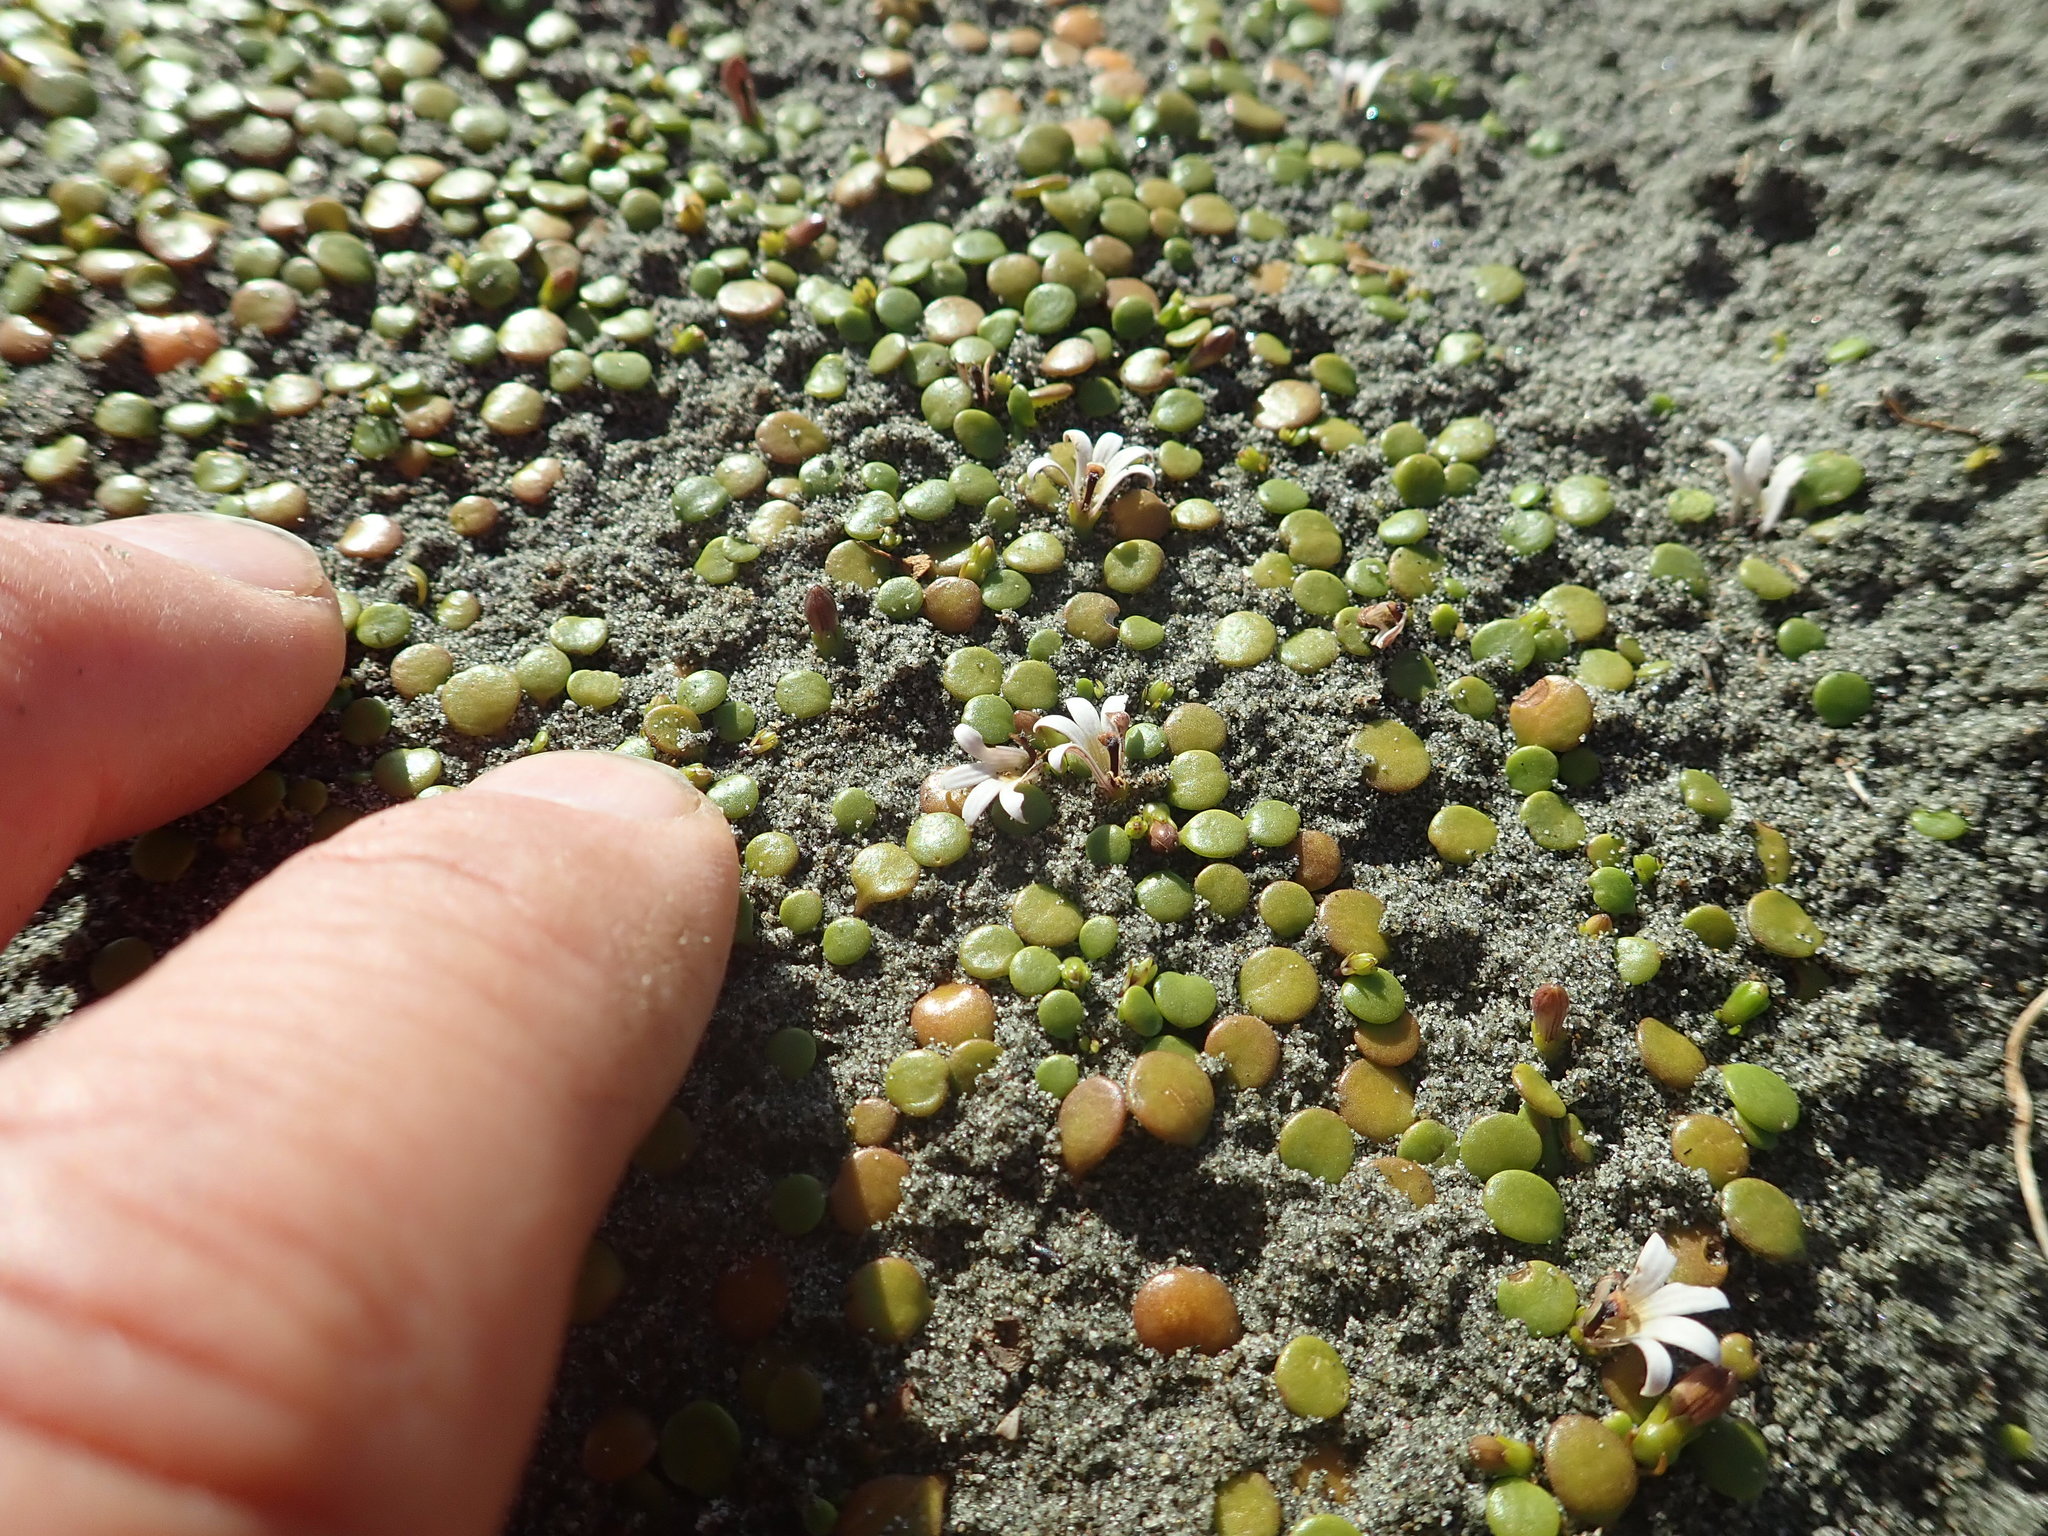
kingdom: Plantae
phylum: Tracheophyta
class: Magnoliopsida
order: Asterales
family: Goodeniaceae
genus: Goodenia
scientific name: Goodenia heenanii
